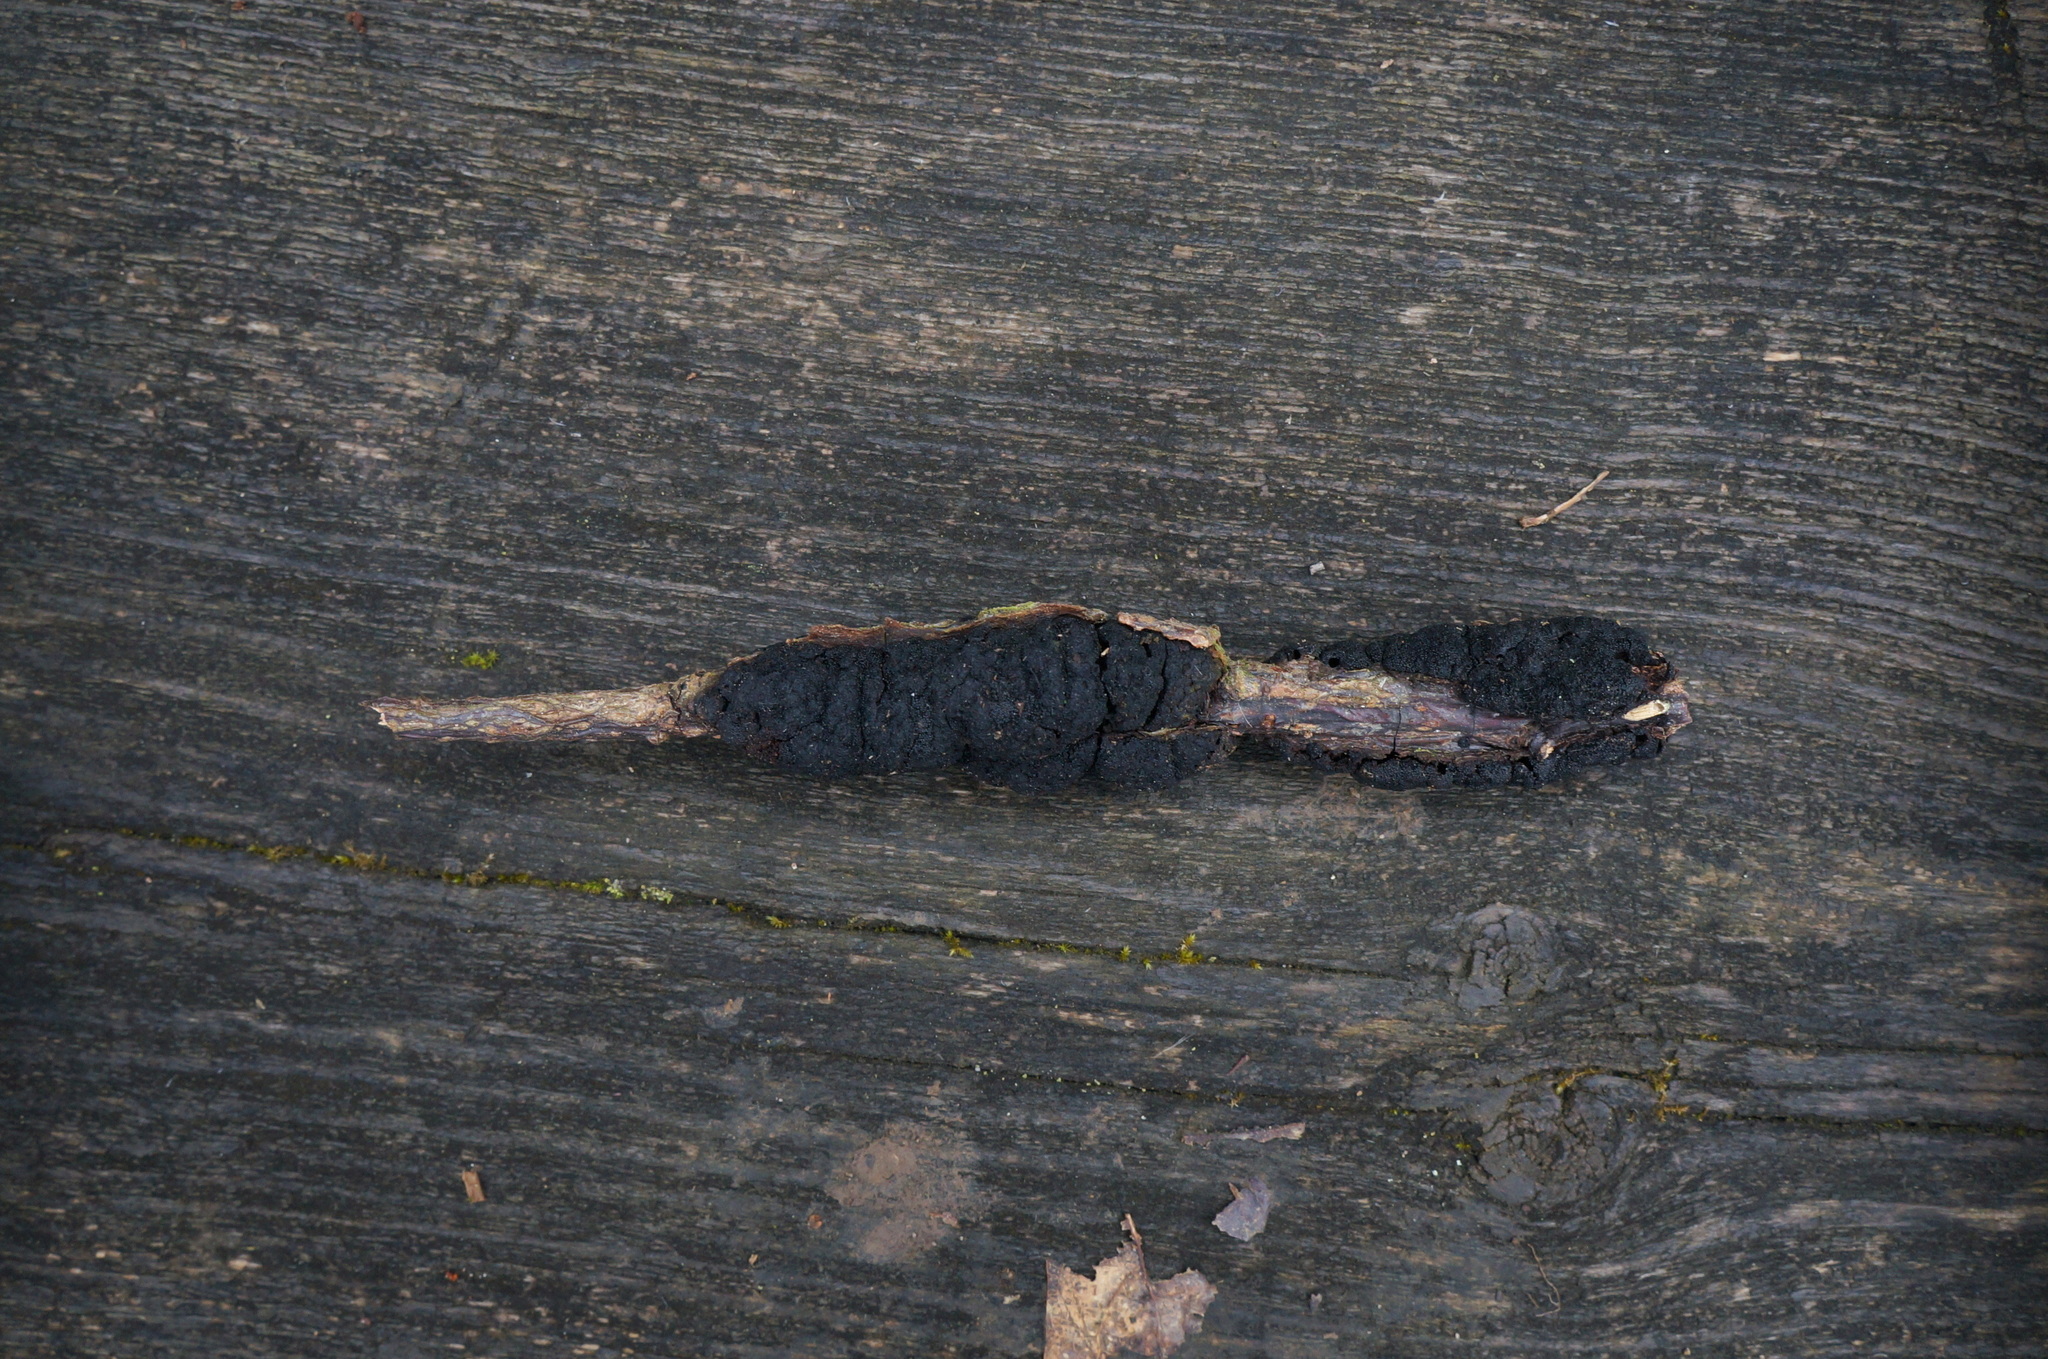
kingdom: Fungi
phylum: Ascomycota
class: Dothideomycetes
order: Venturiales
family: Venturiaceae
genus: Apiosporina
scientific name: Apiosporina morbosa
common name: Black knot
